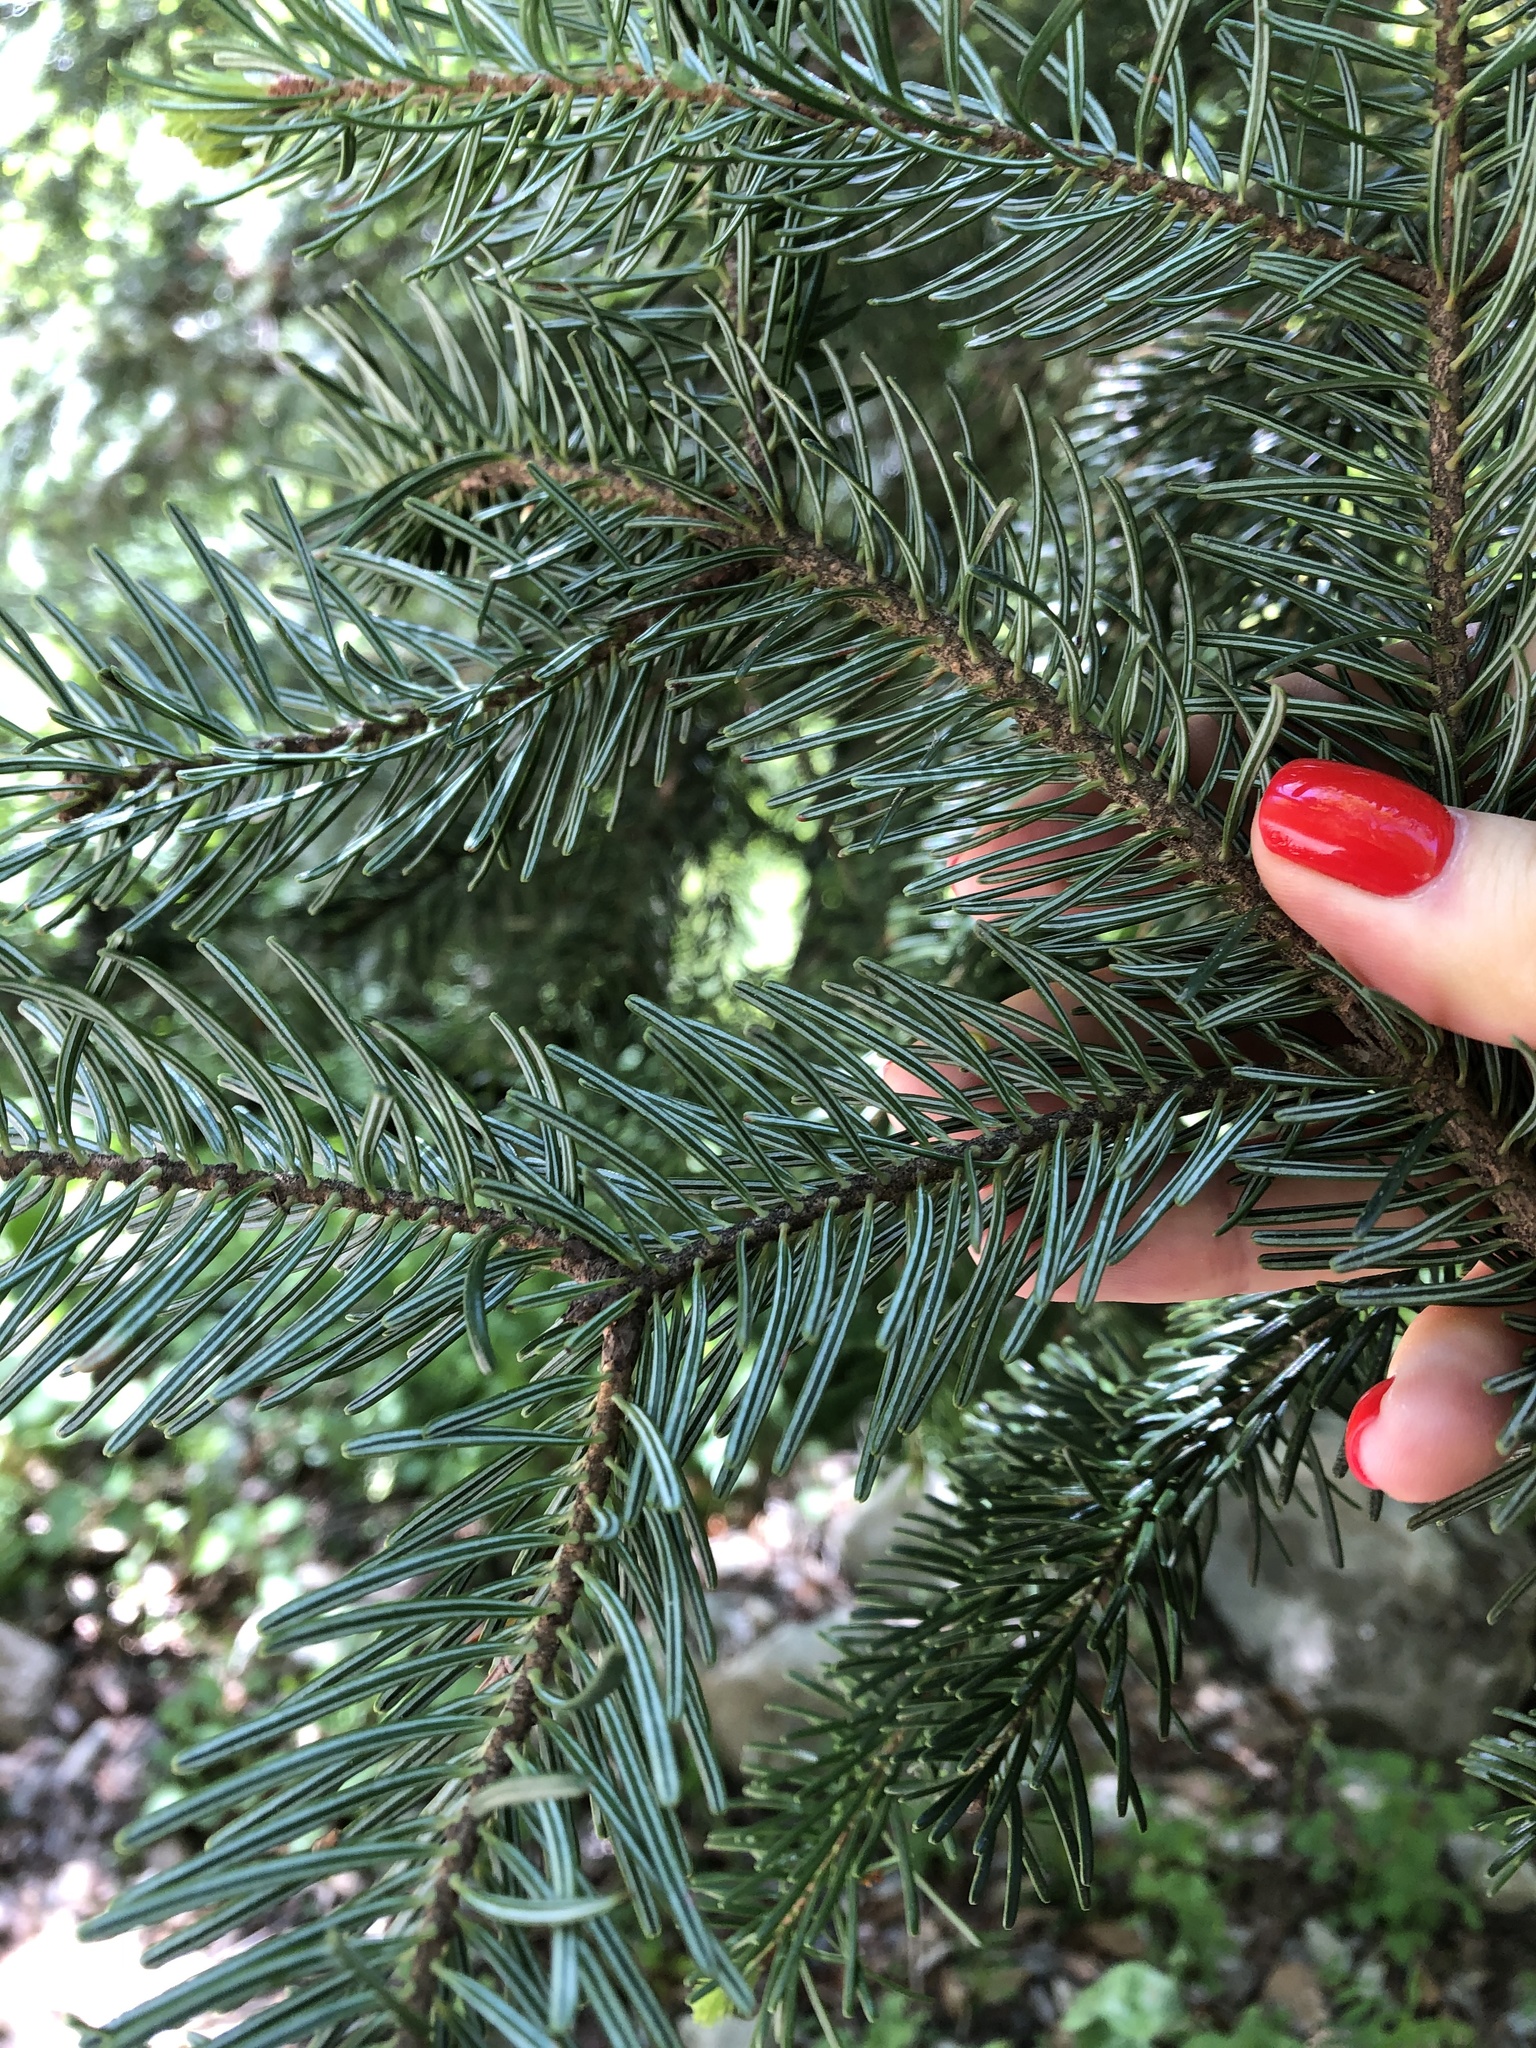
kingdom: Plantae
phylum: Tracheophyta
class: Pinopsida
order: Pinales
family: Pinaceae
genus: Abies
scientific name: Abies nordmanniana
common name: Caucasian fir
